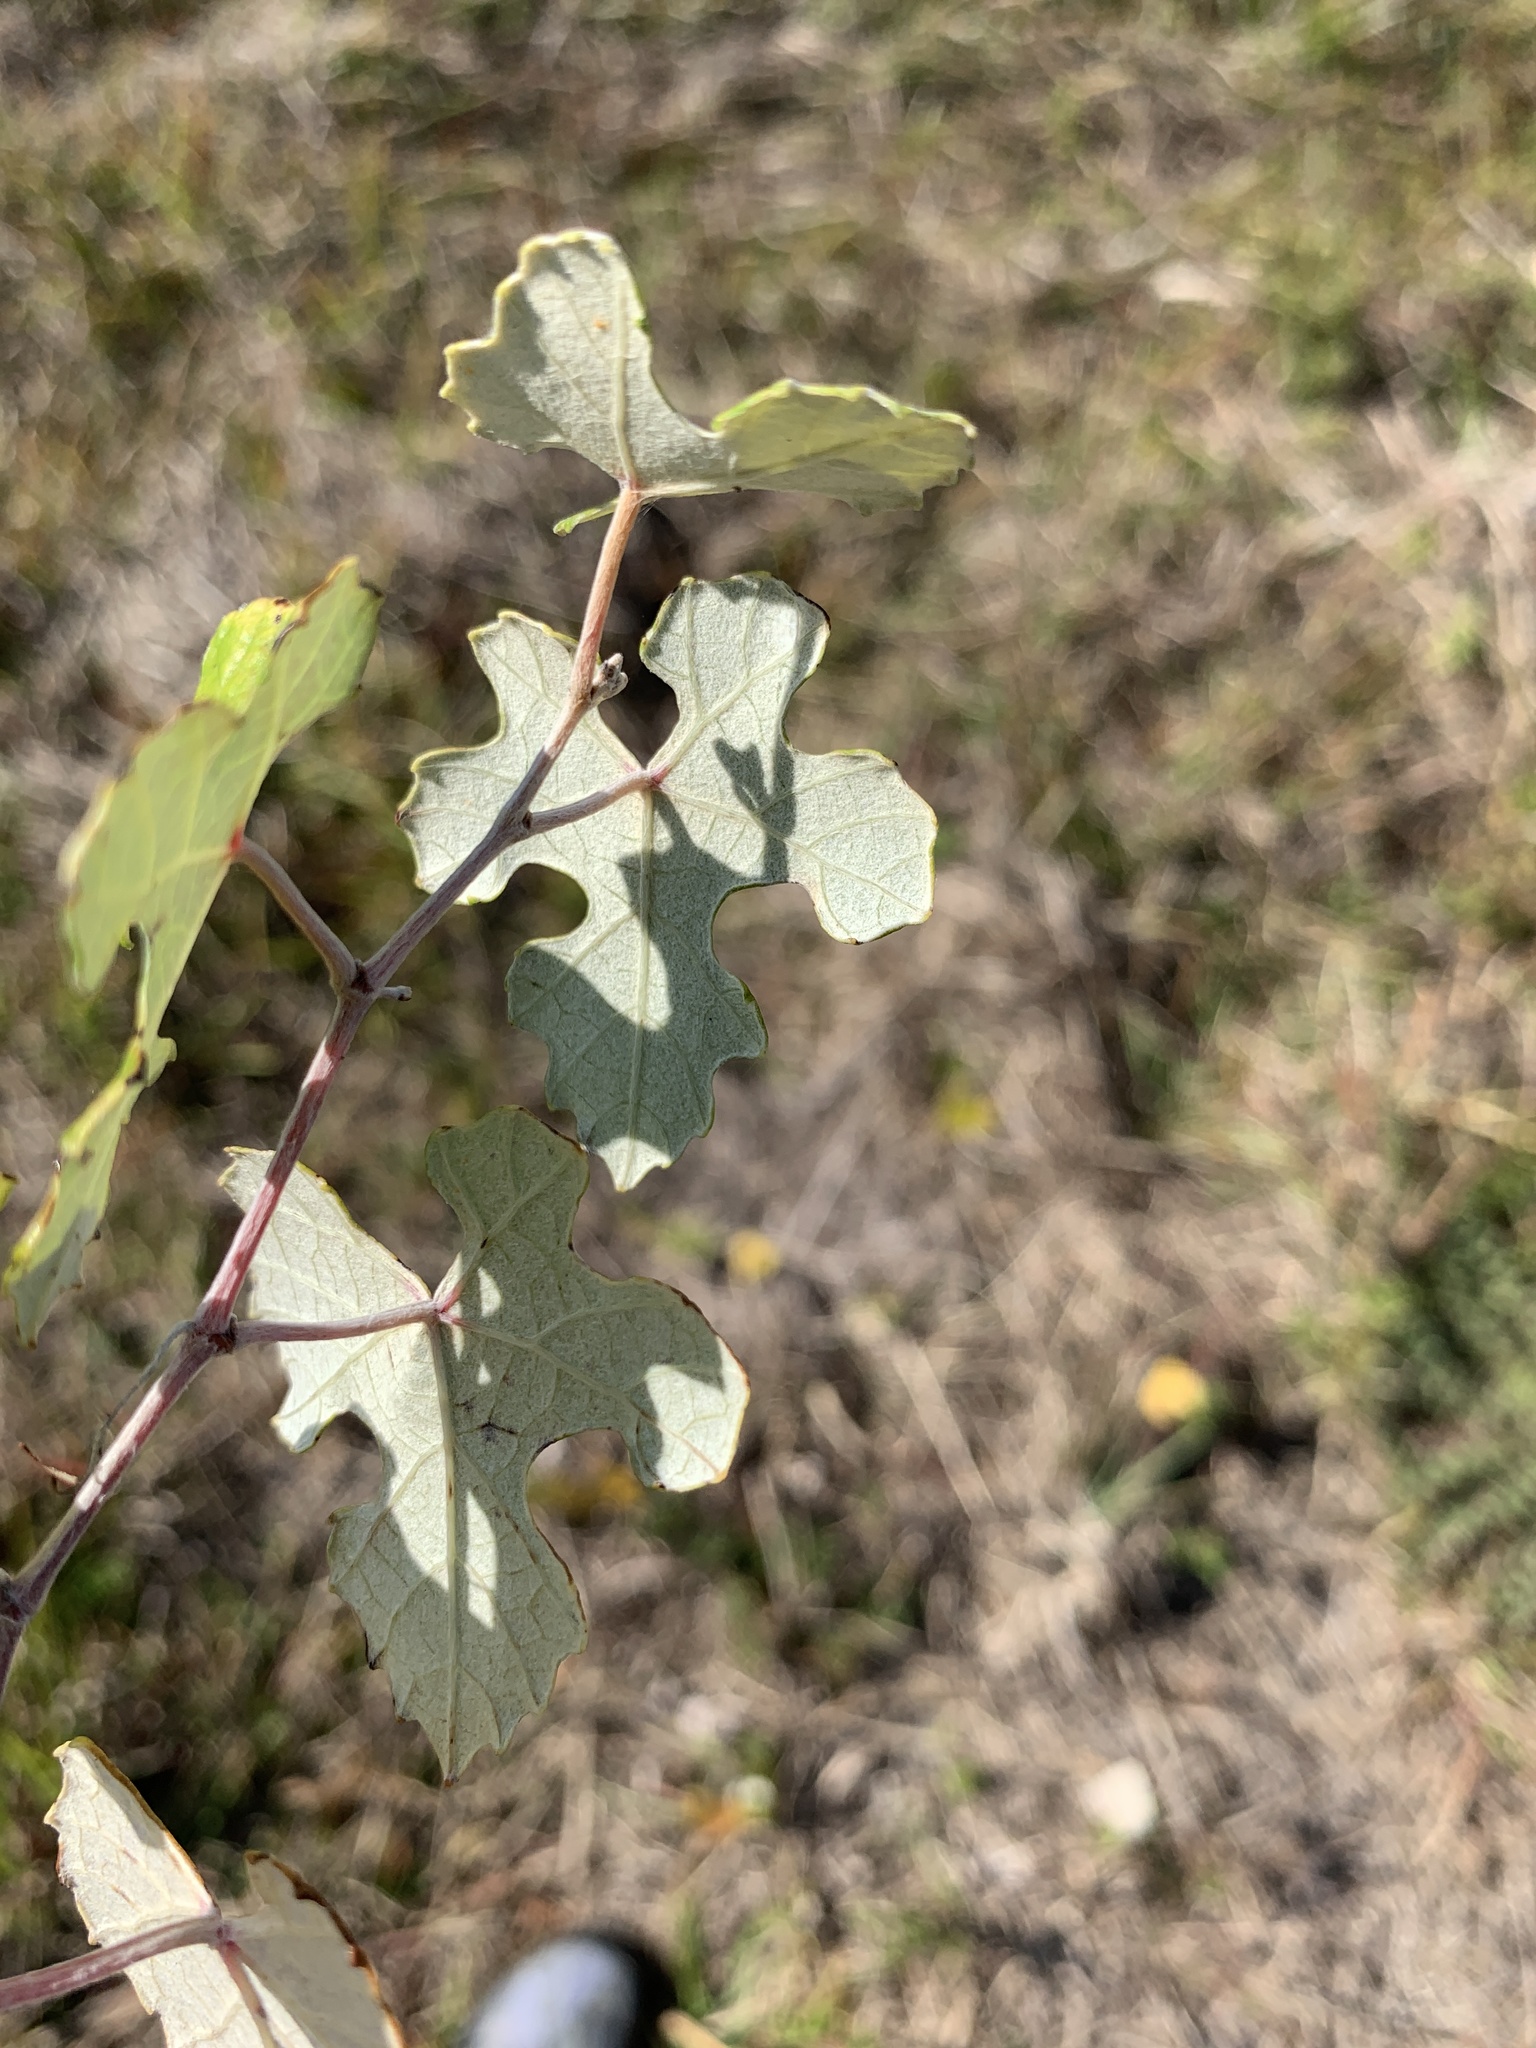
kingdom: Plantae
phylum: Tracheophyta
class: Magnoliopsida
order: Vitales
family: Vitaceae
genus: Vitis
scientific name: Vitis shuttleworthii
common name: Caloosa grape
